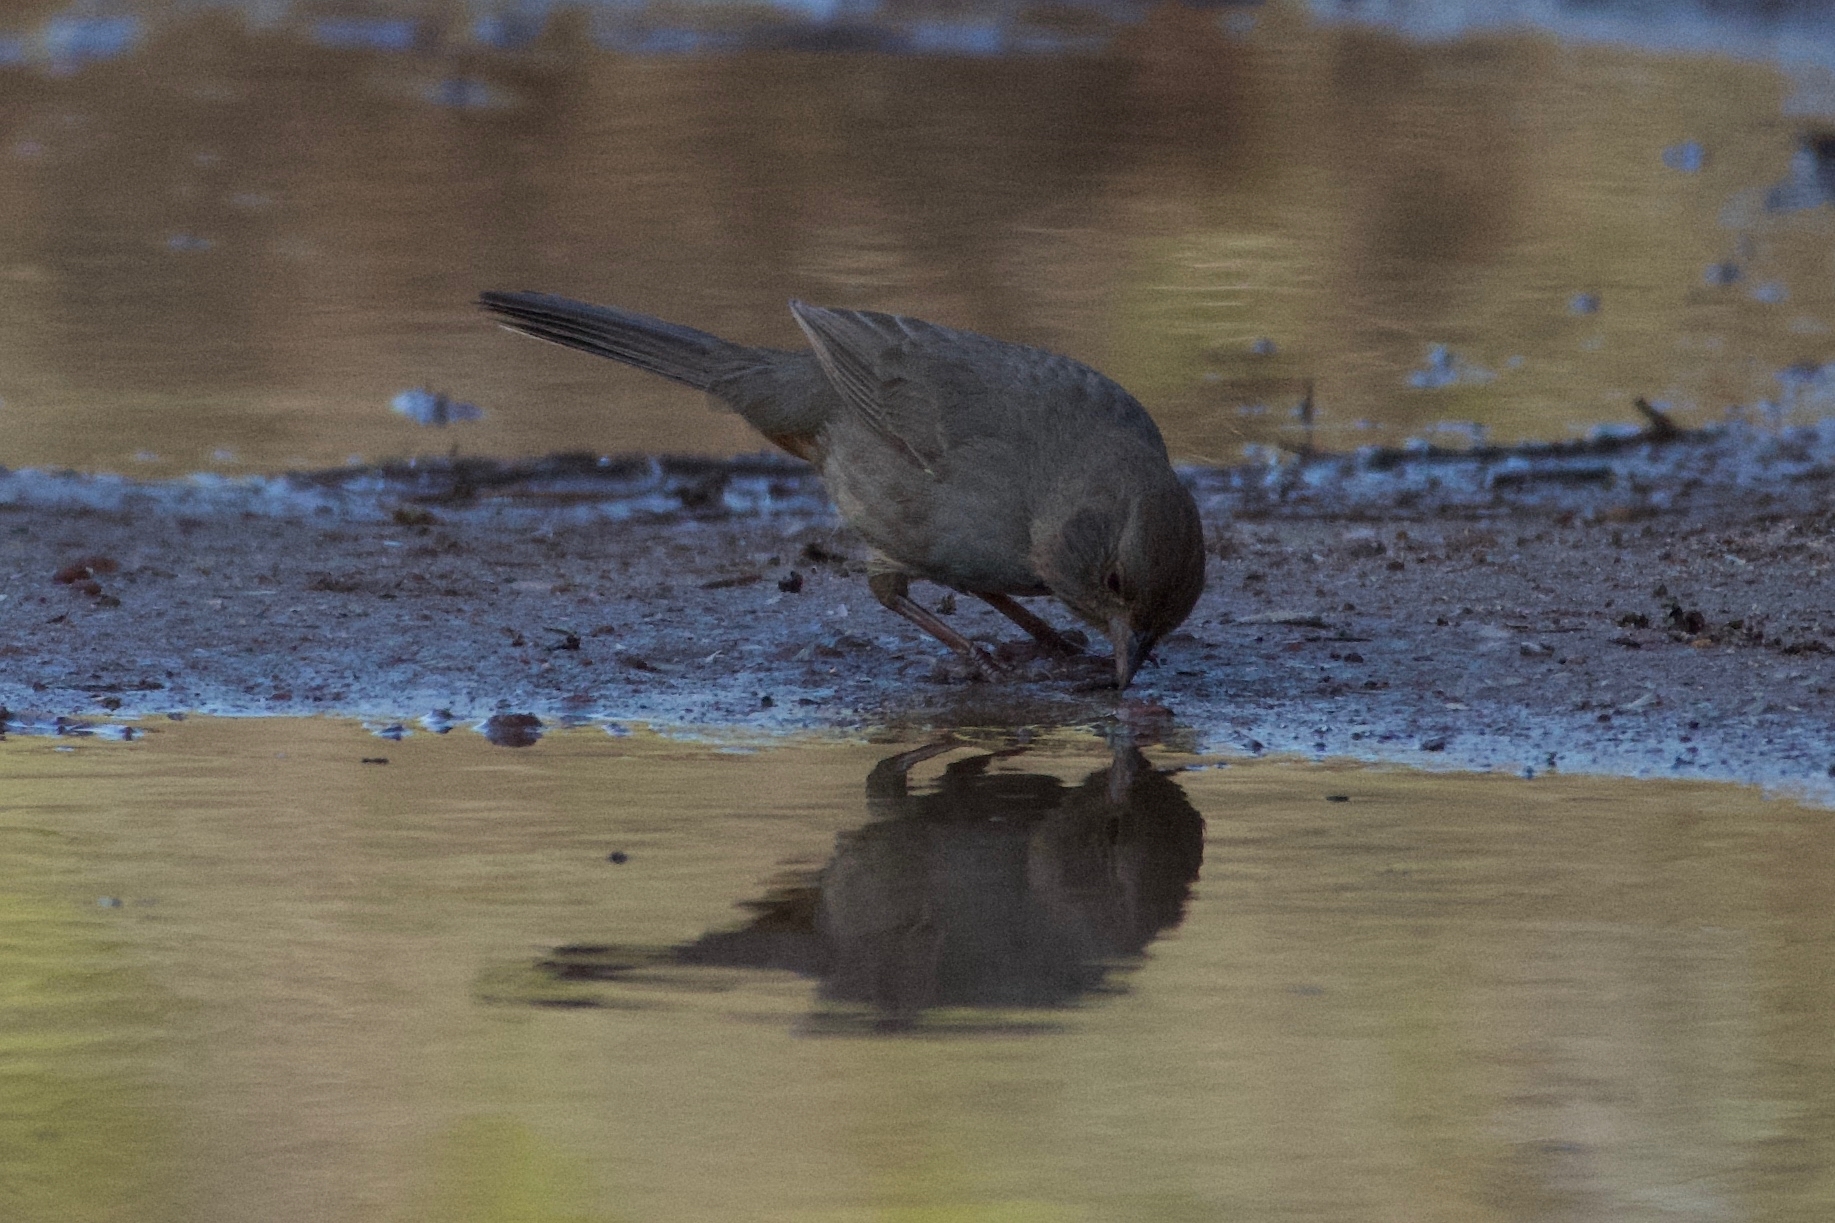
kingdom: Animalia
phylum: Chordata
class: Aves
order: Passeriformes
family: Passerellidae
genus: Melozone
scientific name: Melozone crissalis
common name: California towhee
